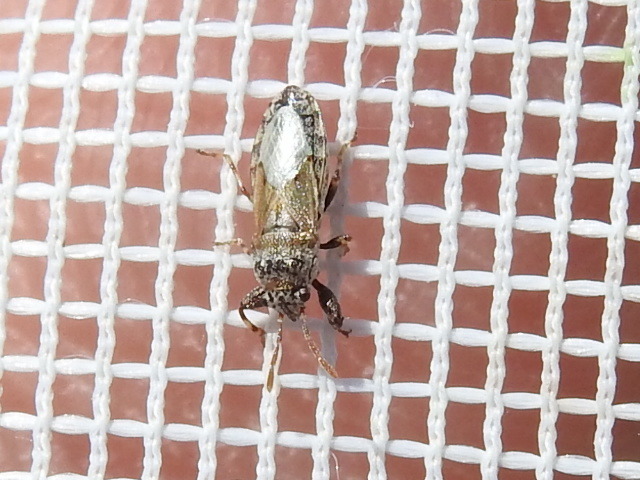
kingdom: Animalia
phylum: Arthropoda
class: Insecta
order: Hemiptera
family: Pachygronthidae
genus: Phlegyas
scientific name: Phlegyas annulicrus
